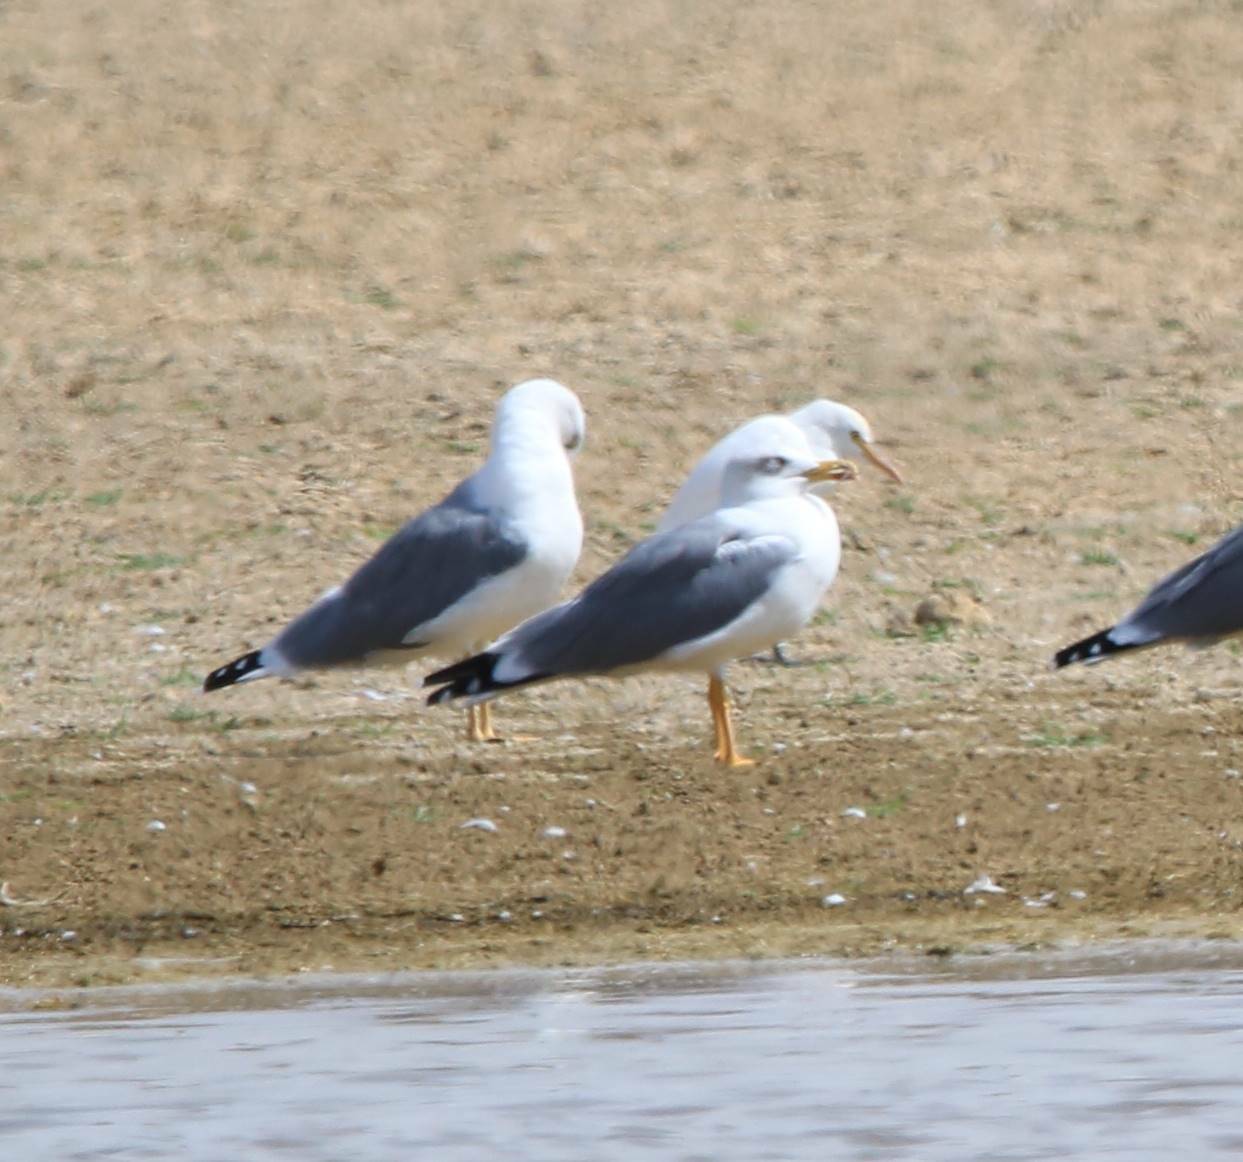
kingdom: Animalia
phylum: Chordata
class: Aves
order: Charadriiformes
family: Laridae
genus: Larus
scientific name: Larus michahellis
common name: Yellow-legged gull
